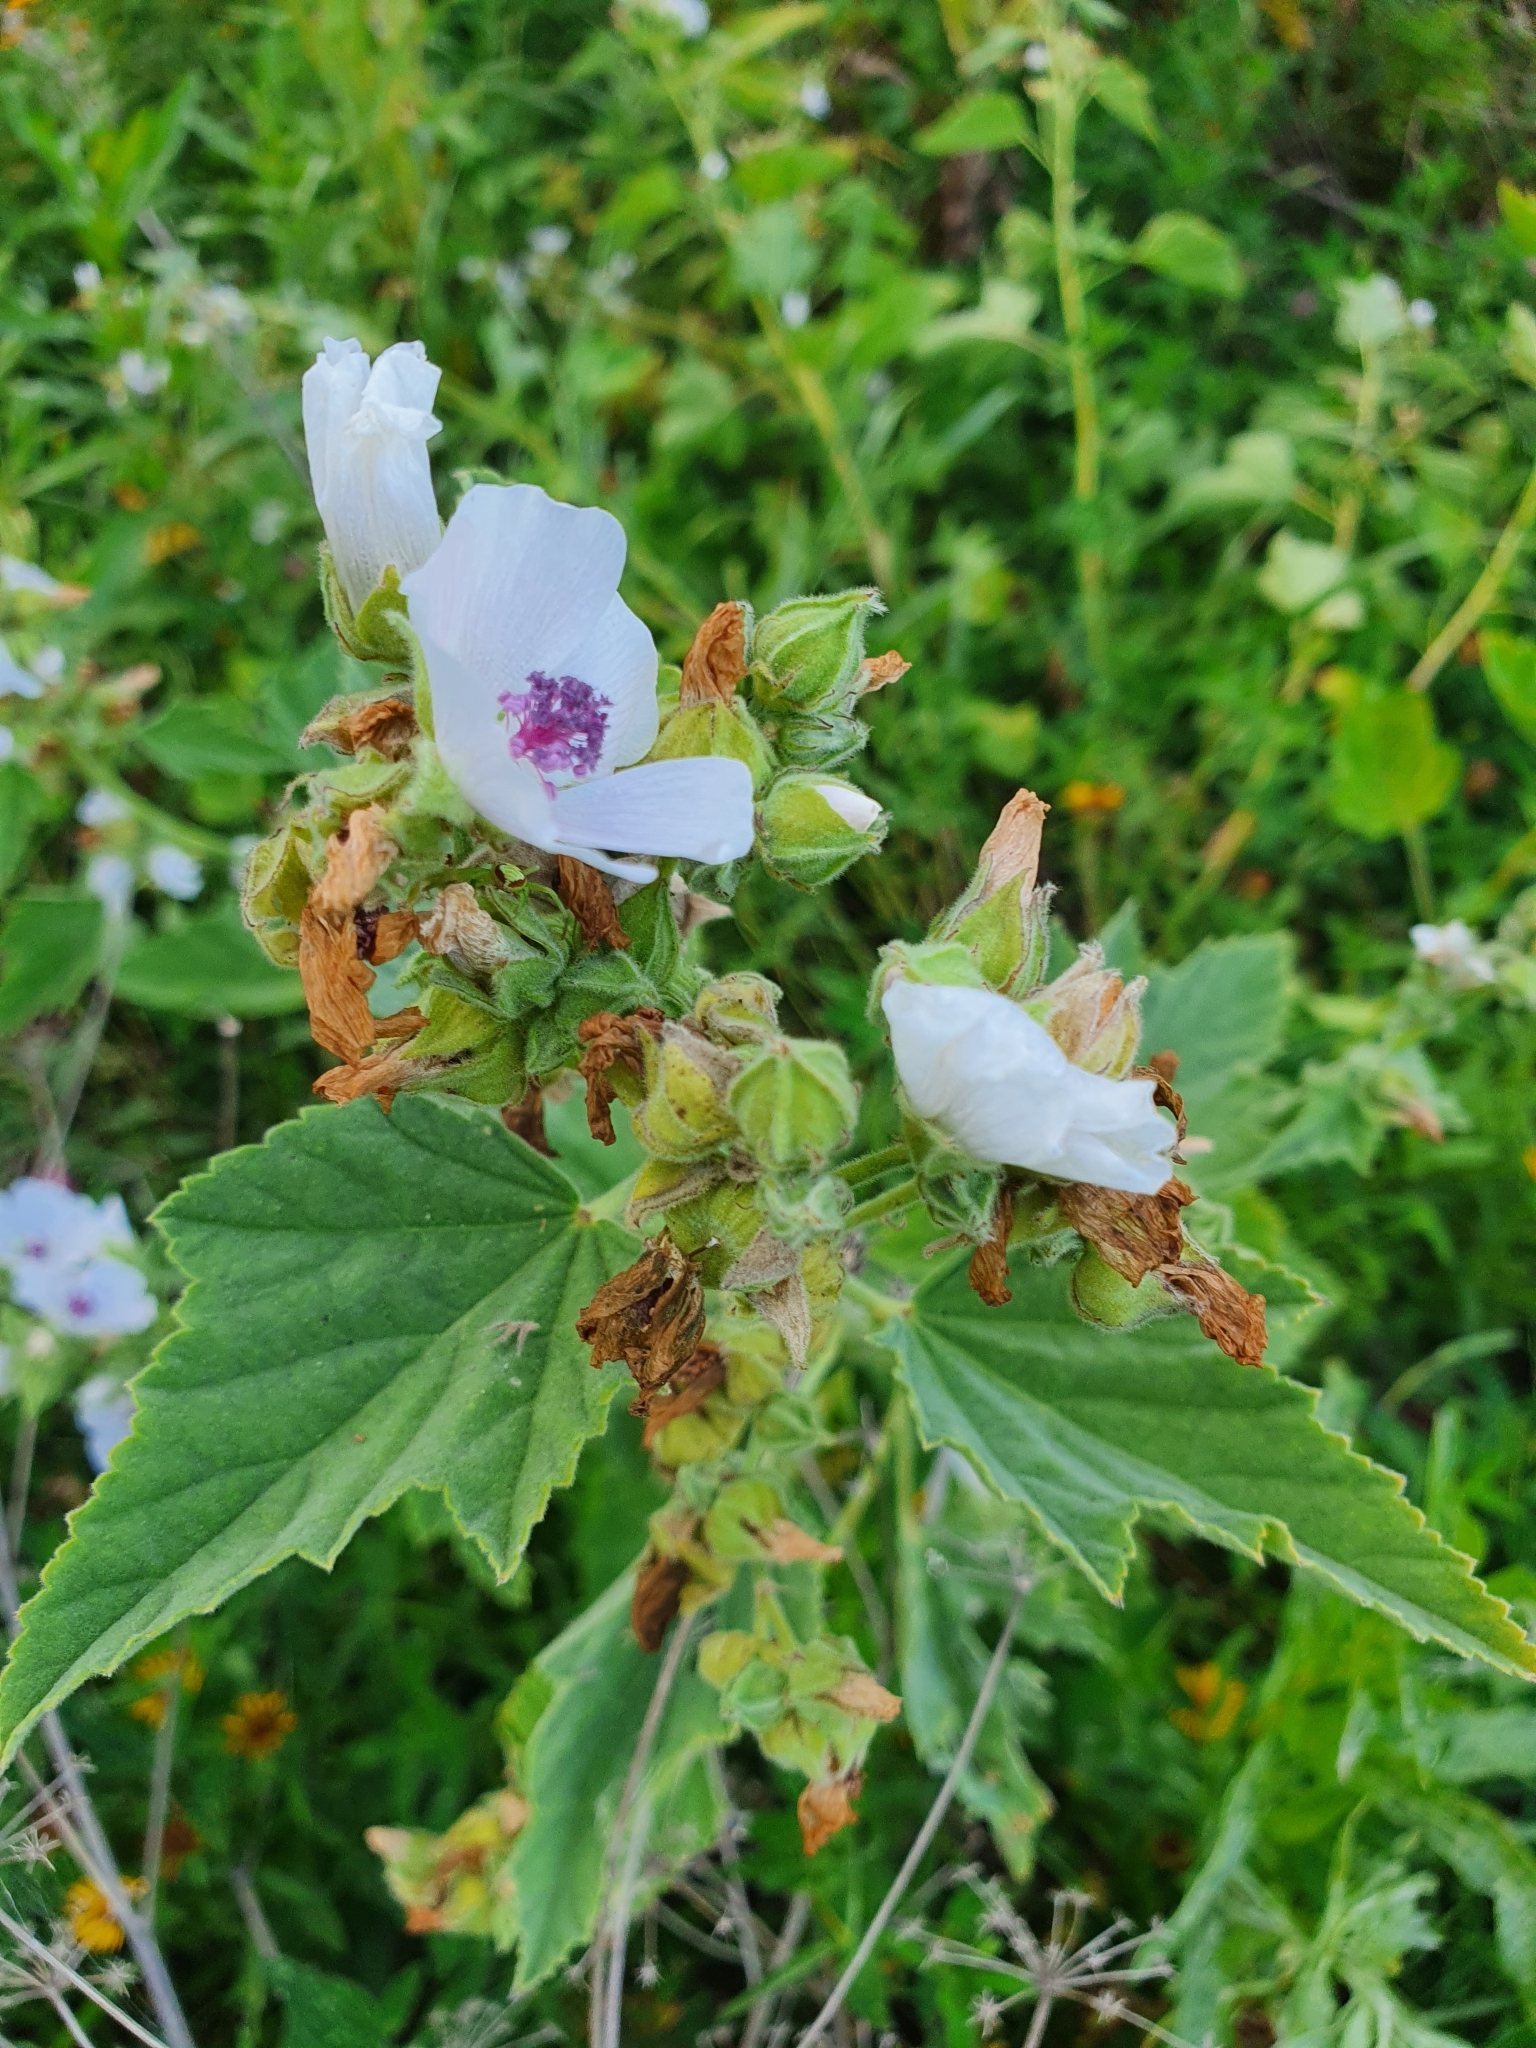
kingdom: Plantae
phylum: Tracheophyta
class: Magnoliopsida
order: Malvales
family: Malvaceae
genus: Althaea
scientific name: Althaea officinalis
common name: Marsh-mallow
